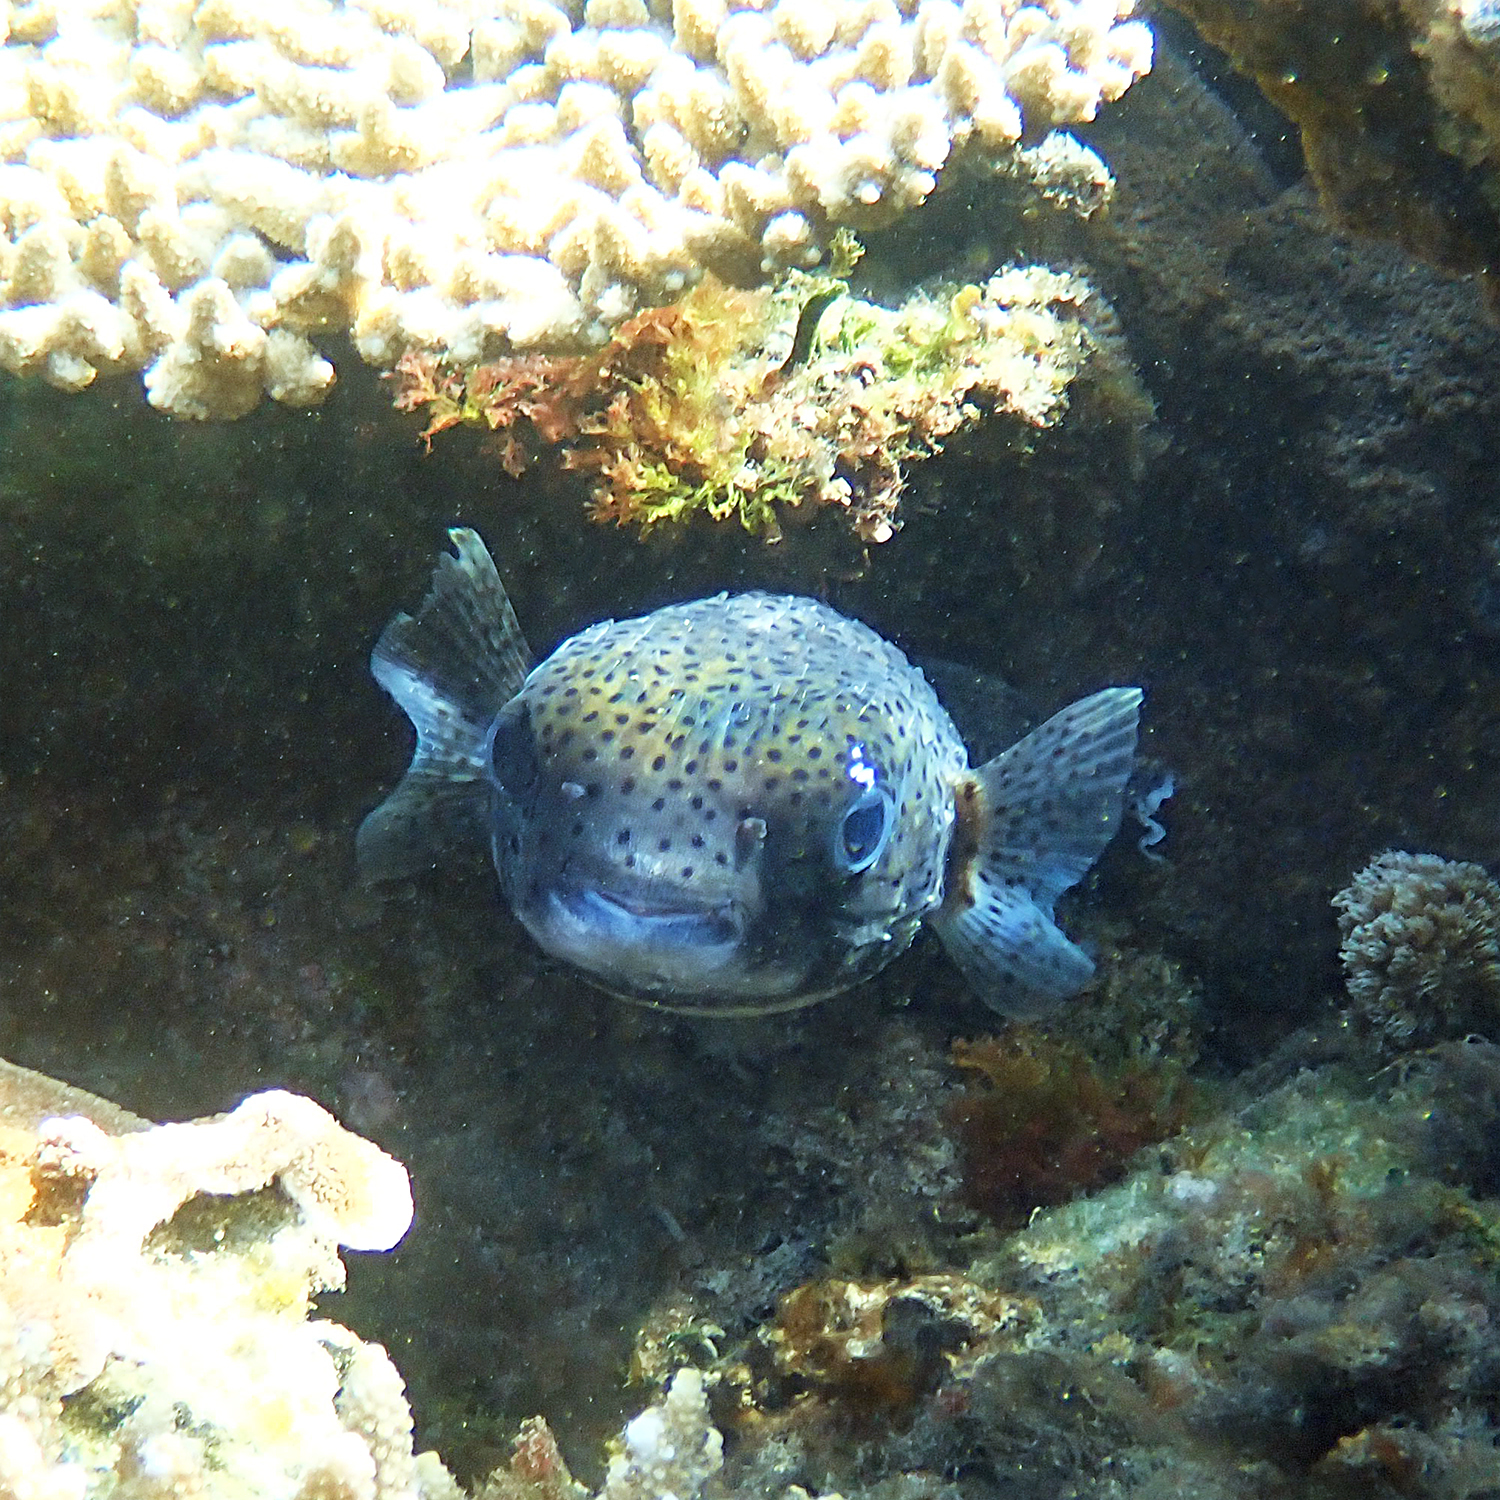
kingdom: Animalia
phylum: Chordata
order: Tetraodontiformes
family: Diodontidae
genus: Diodon
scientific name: Diodon hystrix
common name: Giant porcupinefish
